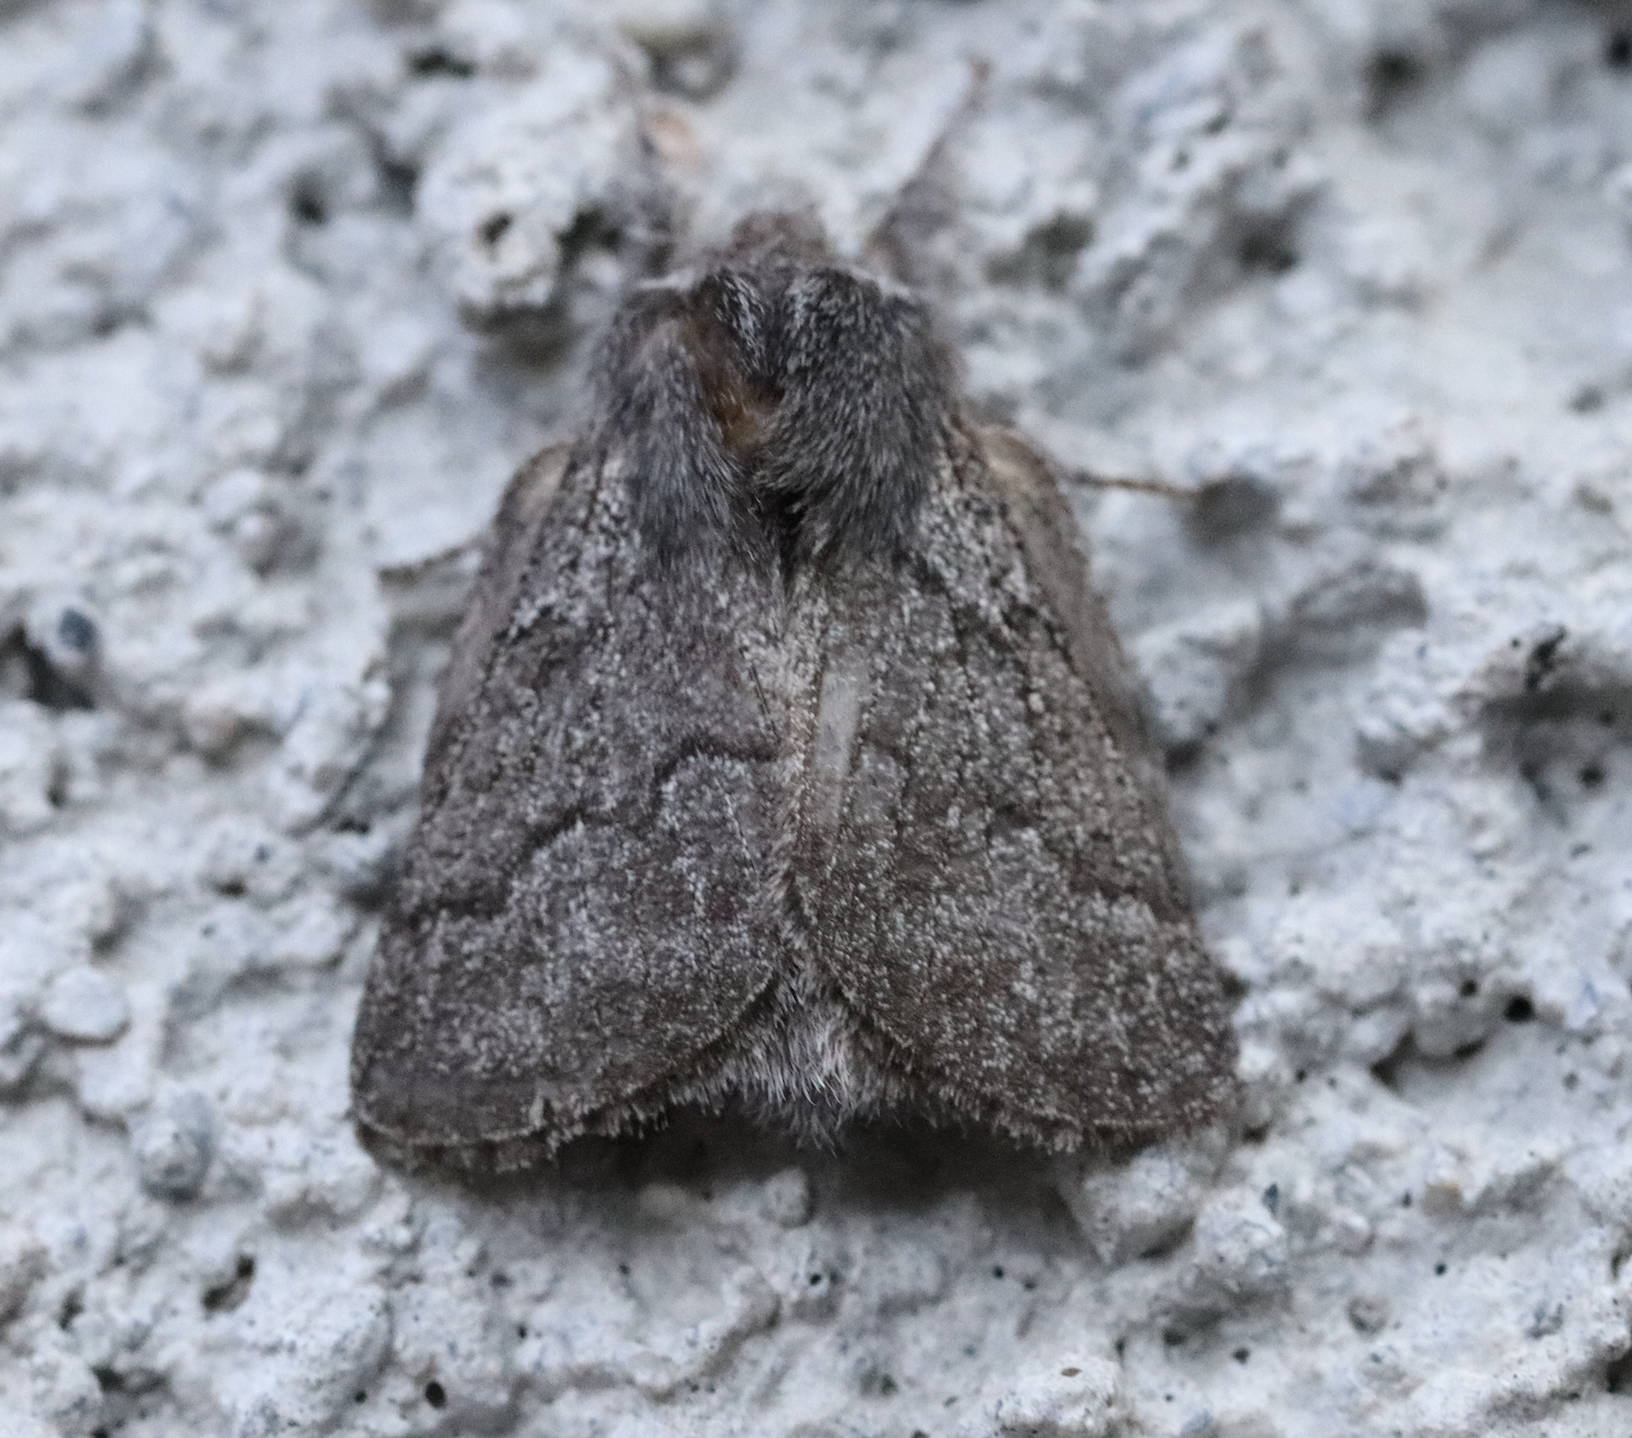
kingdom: Animalia
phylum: Arthropoda
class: Insecta
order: Lepidoptera
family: Lasiocampidae
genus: Trichiura
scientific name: Trichiura crataegi
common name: Pale eggar
